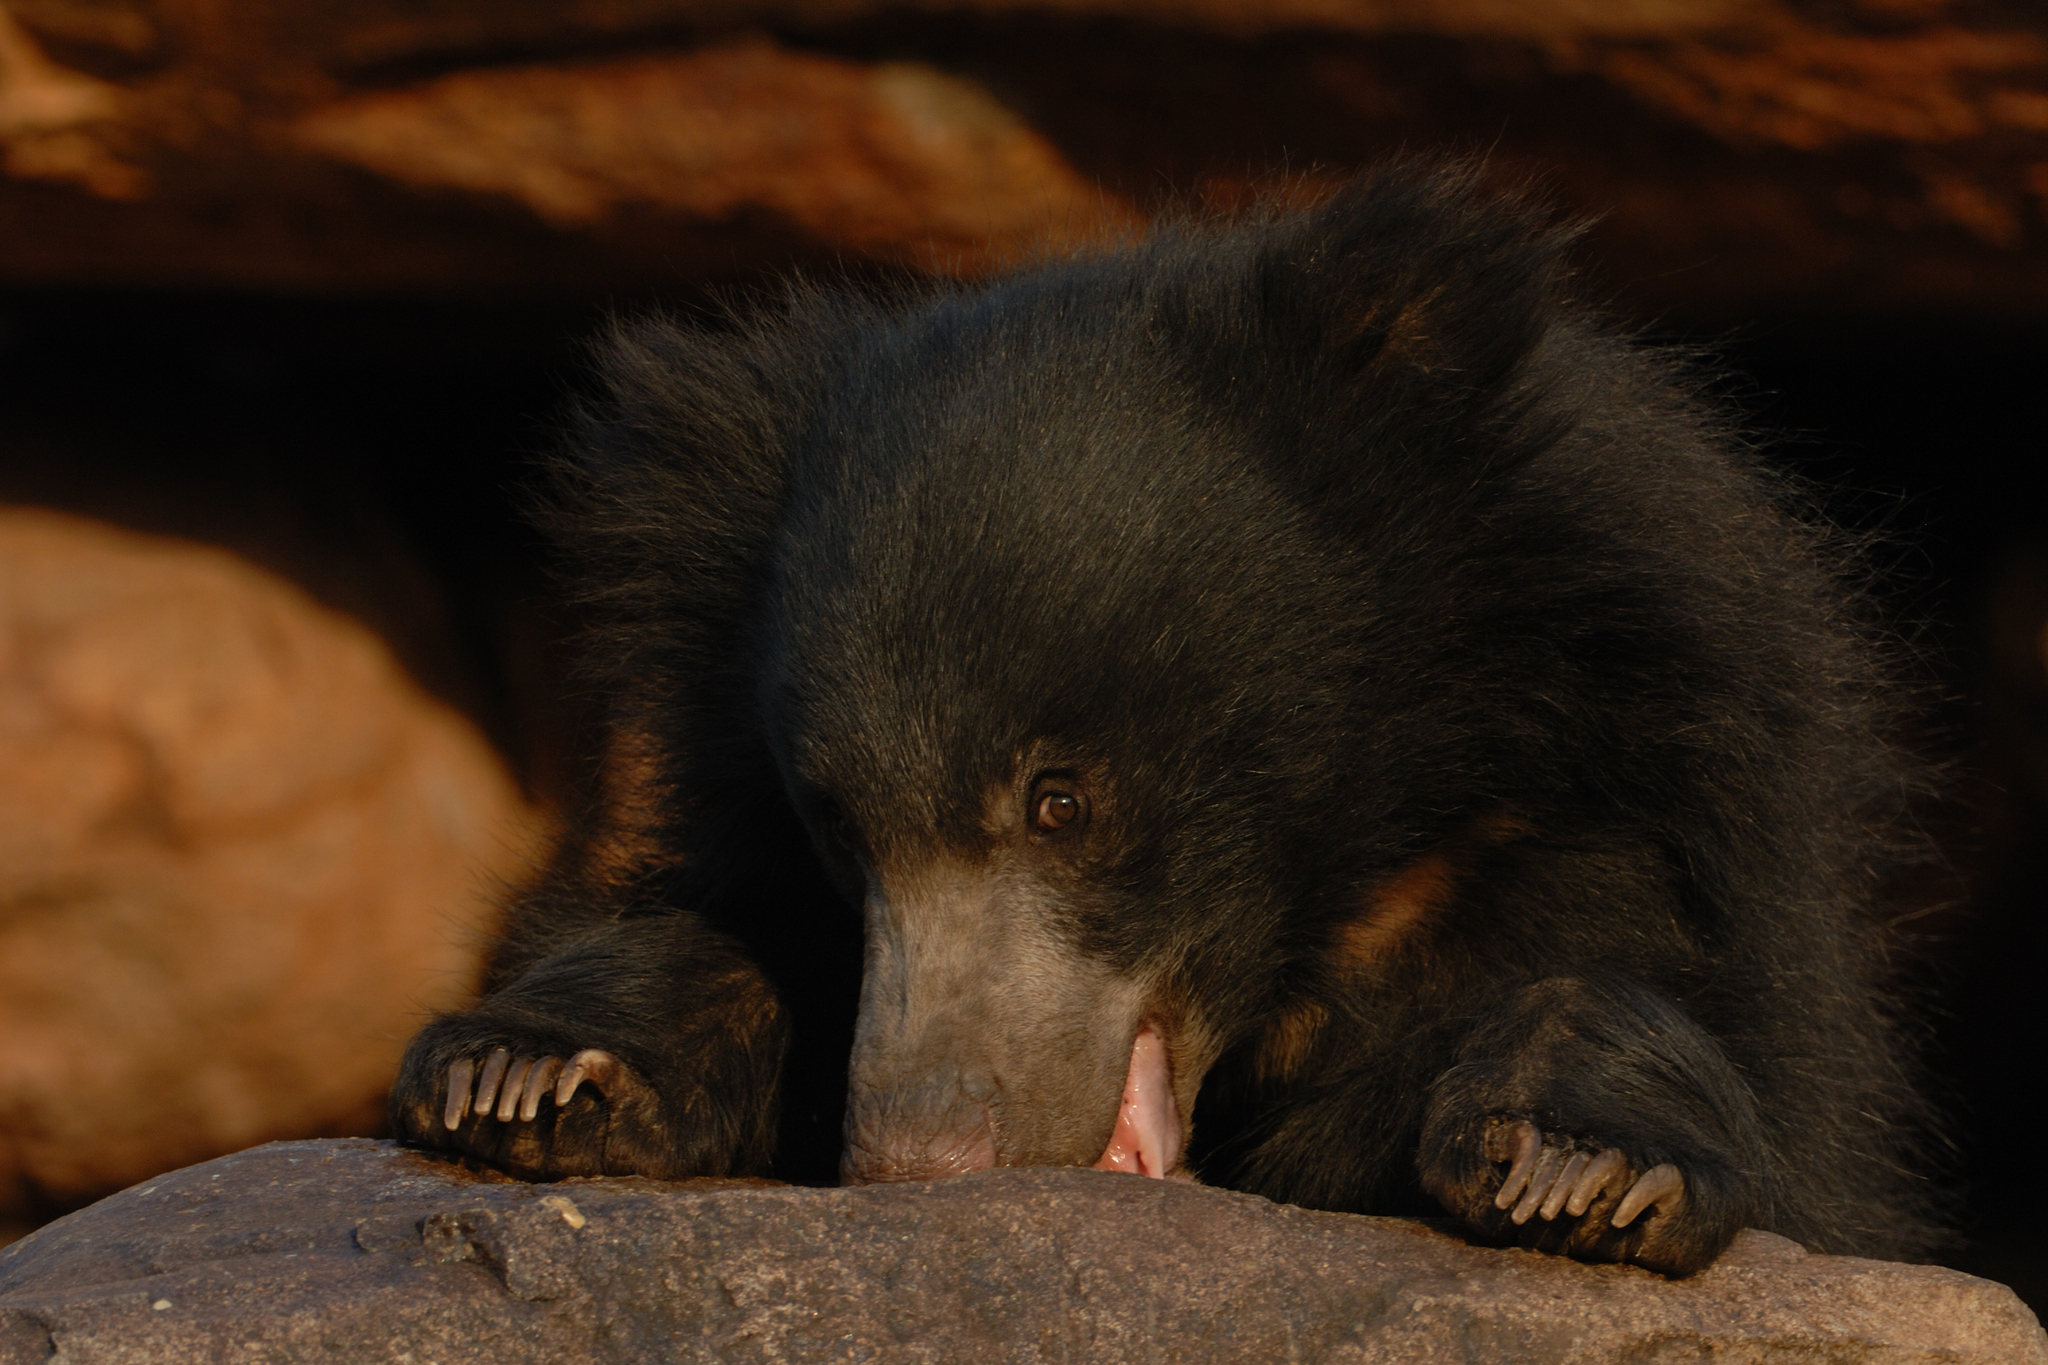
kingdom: Animalia
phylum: Chordata
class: Mammalia
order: Carnivora
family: Ursidae
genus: Melursus
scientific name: Melursus ursinus
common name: Sloth bear
